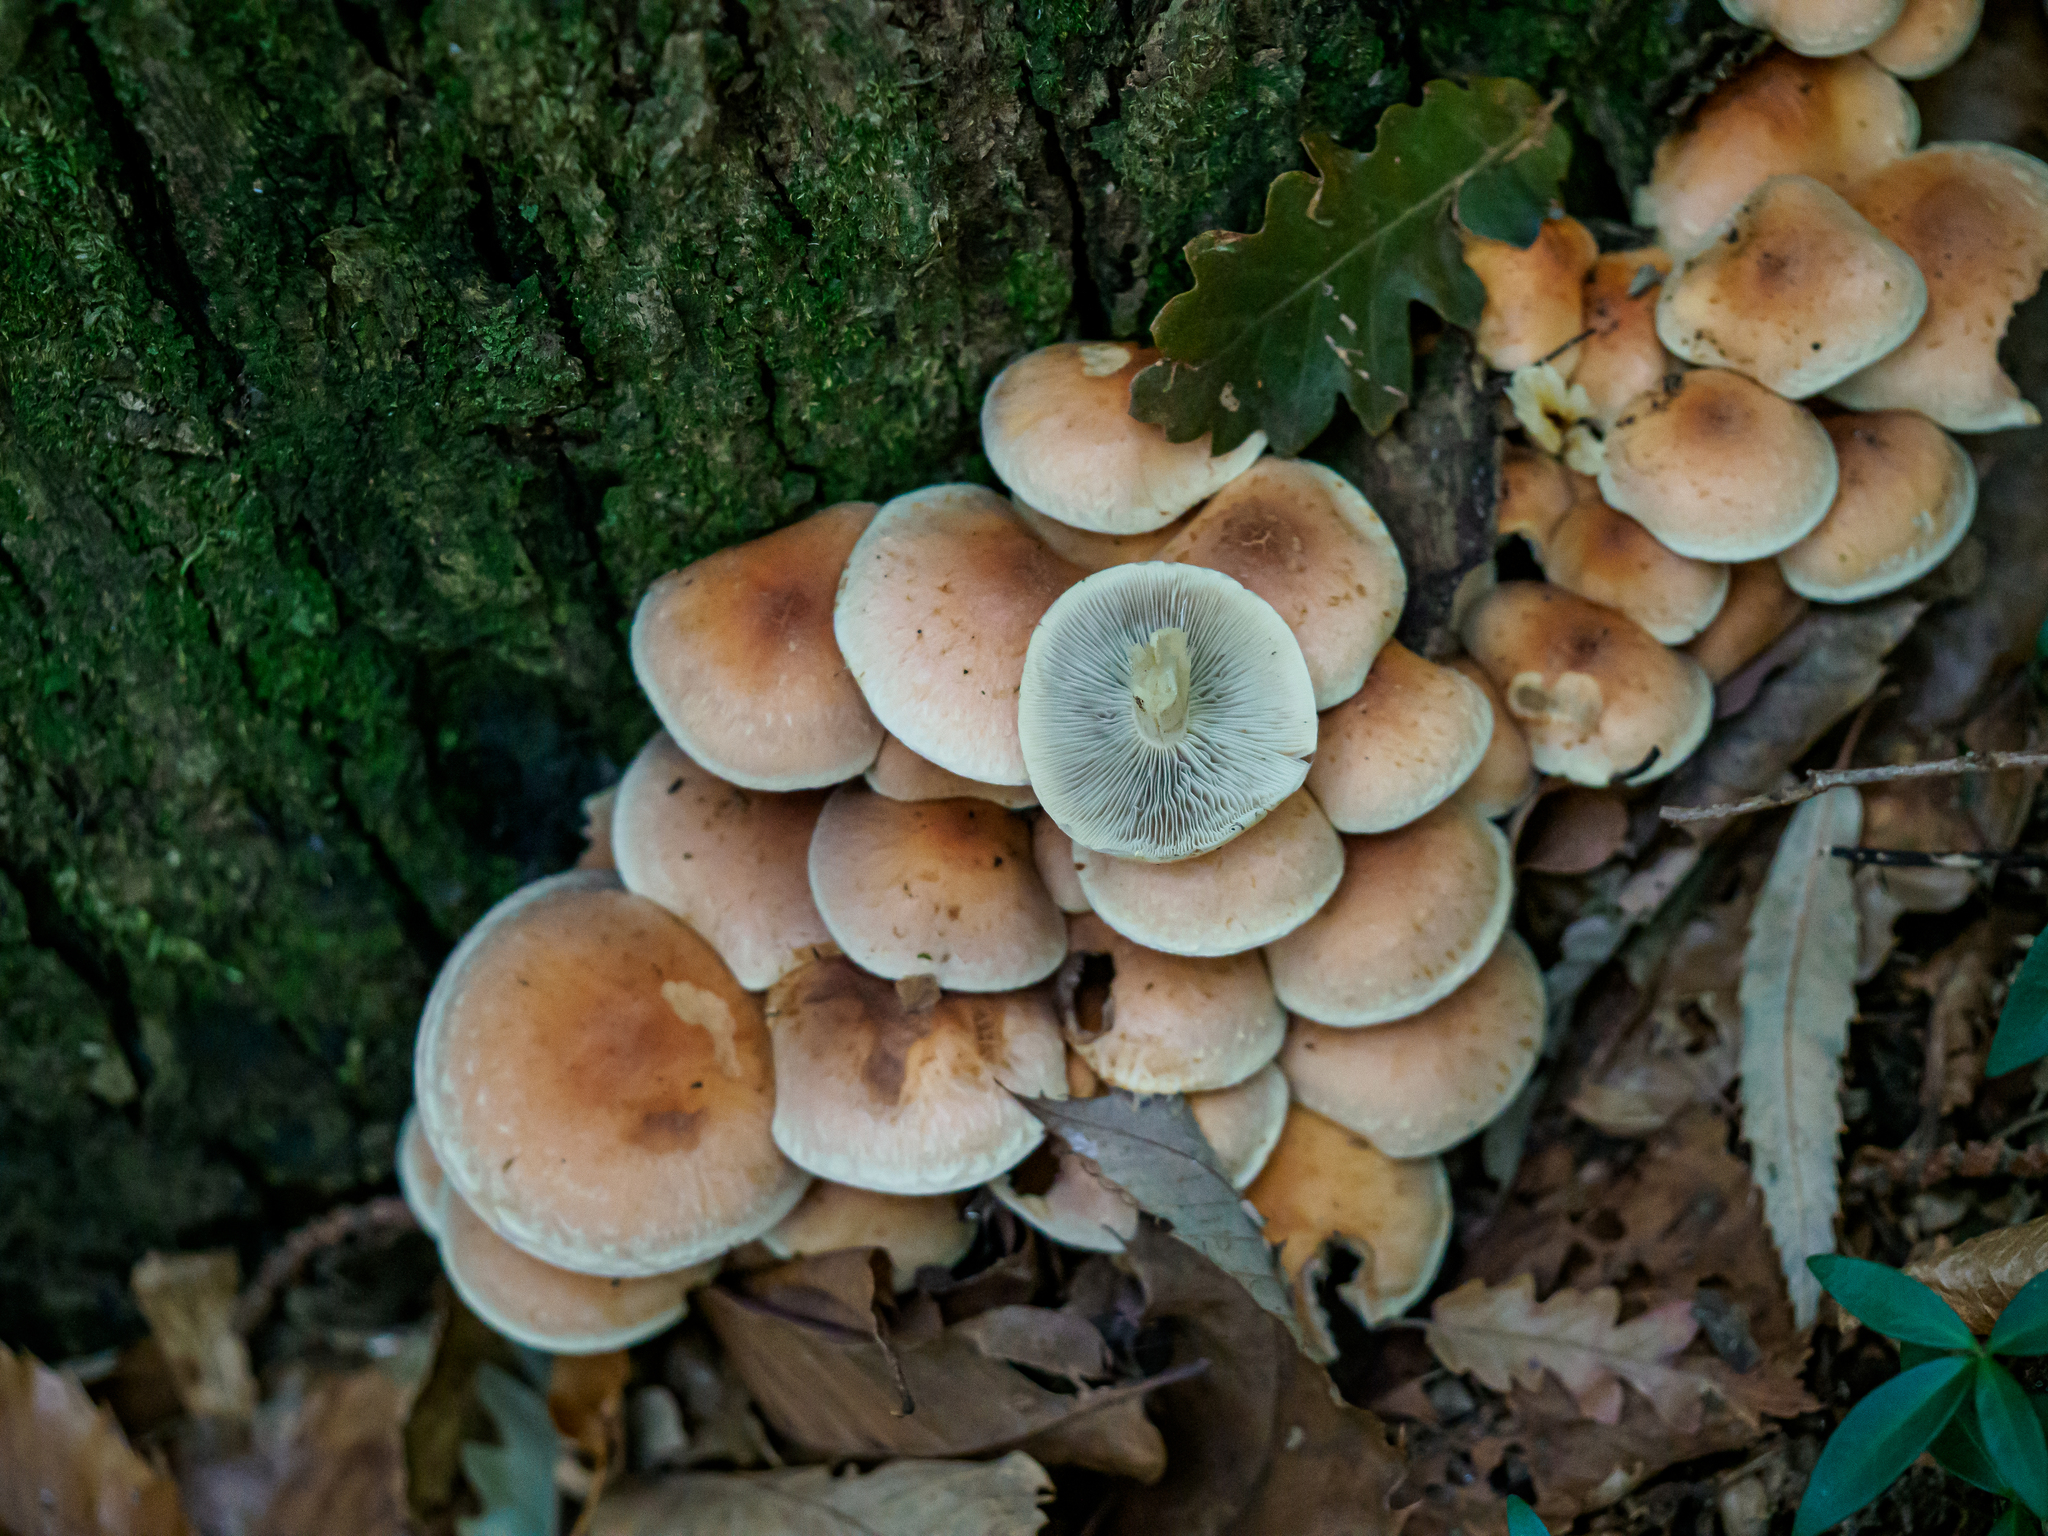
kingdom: Fungi
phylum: Basidiomycota
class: Agaricomycetes
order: Agaricales
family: Strophariaceae
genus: Hypholoma
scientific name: Hypholoma fasciculare
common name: Sulphur tuft
